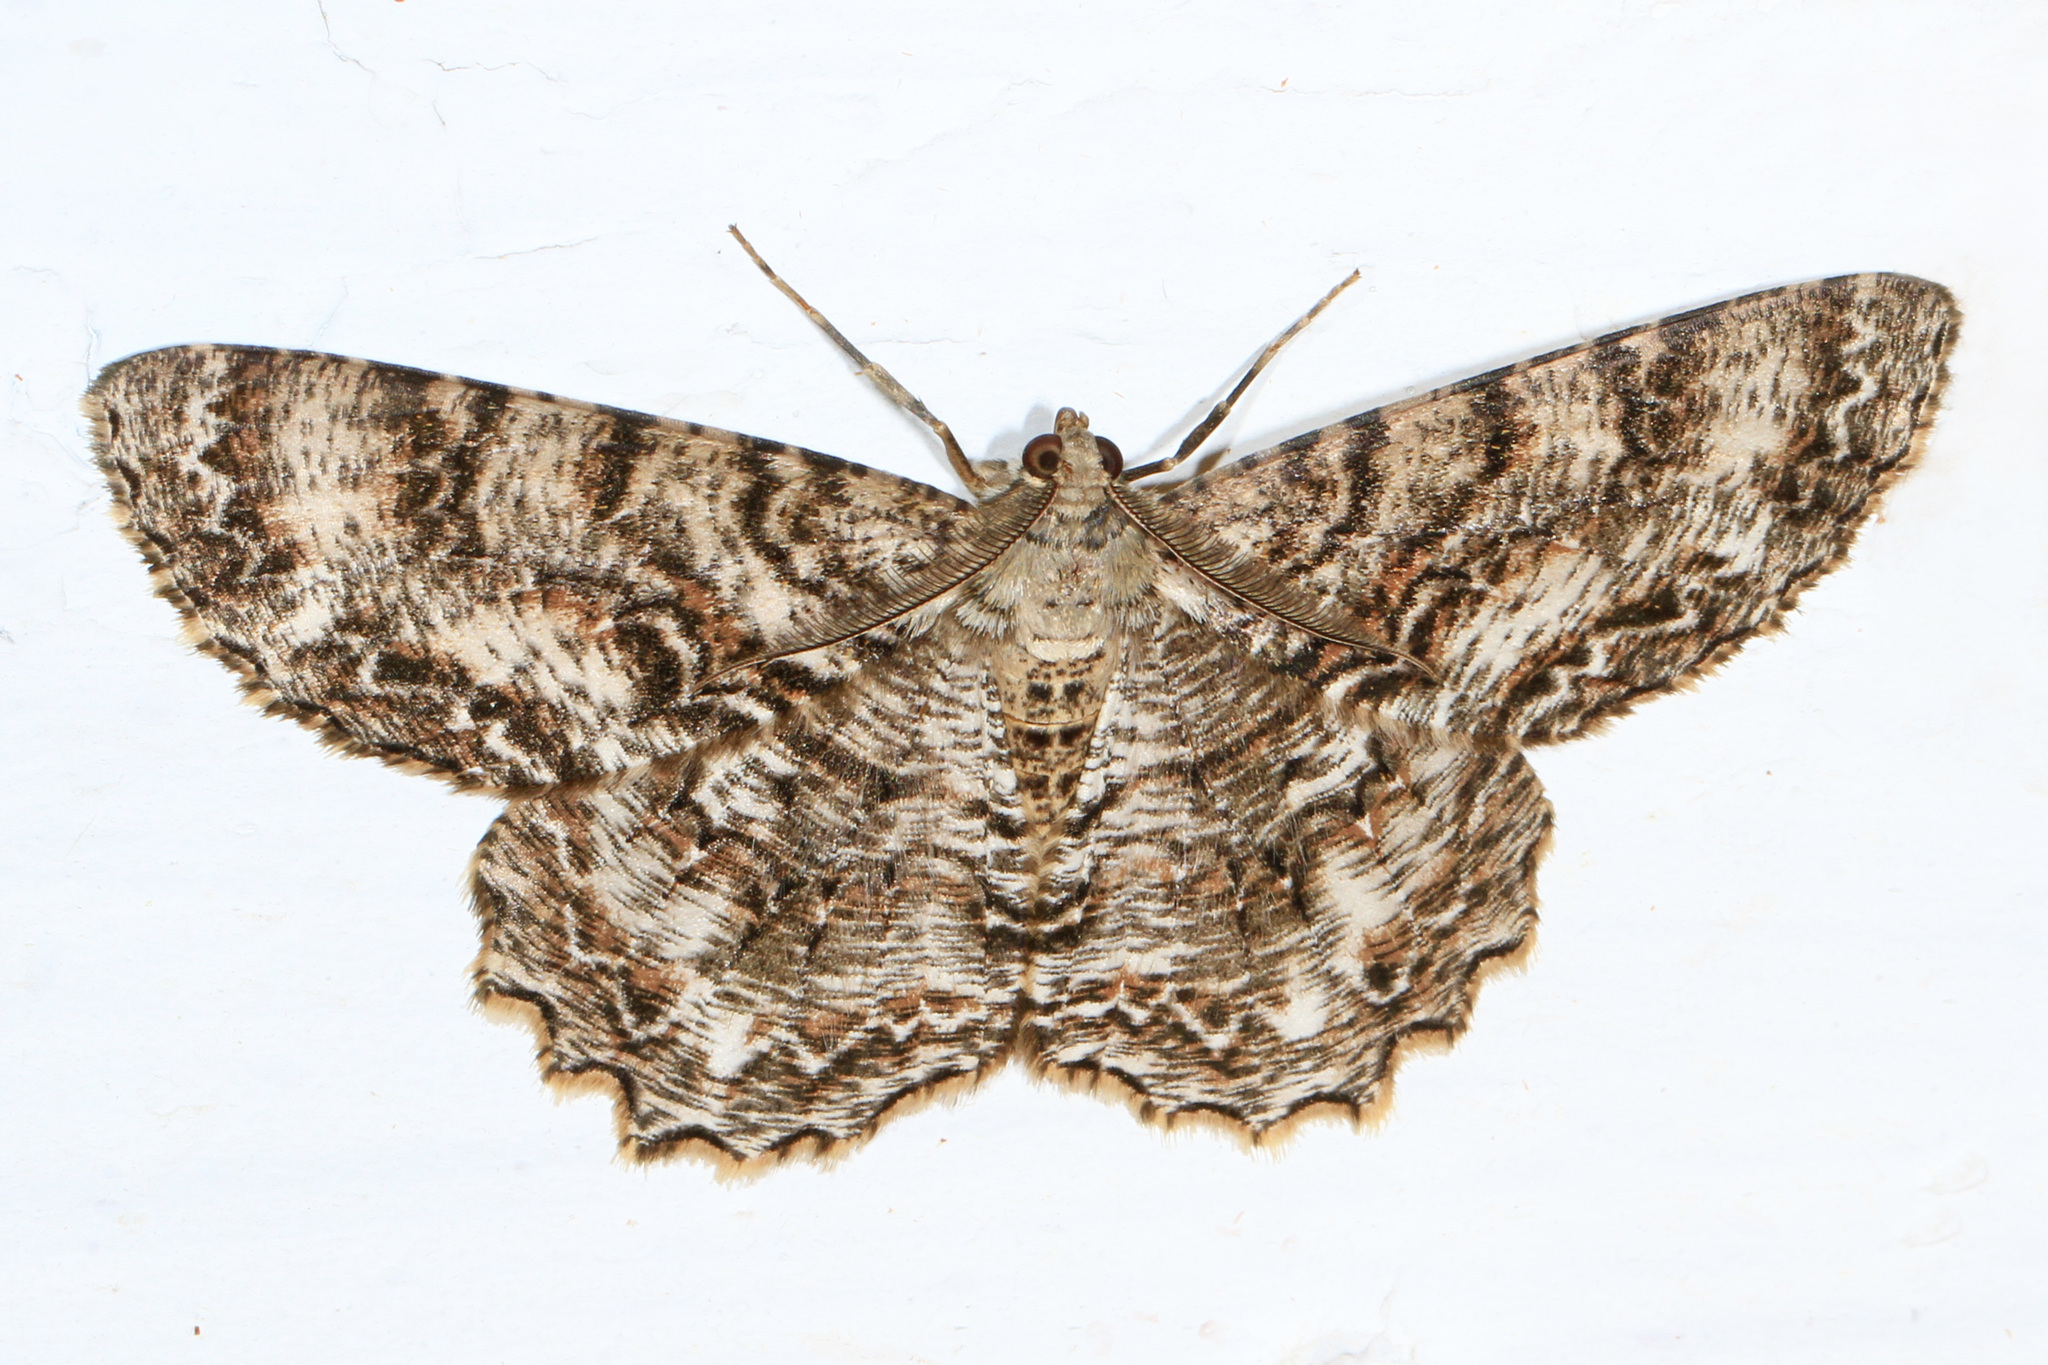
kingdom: Animalia
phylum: Arthropoda
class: Insecta
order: Lepidoptera
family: Geometridae
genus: Epimecis
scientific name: Epimecis hortaria
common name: Tulip-tree beauty
